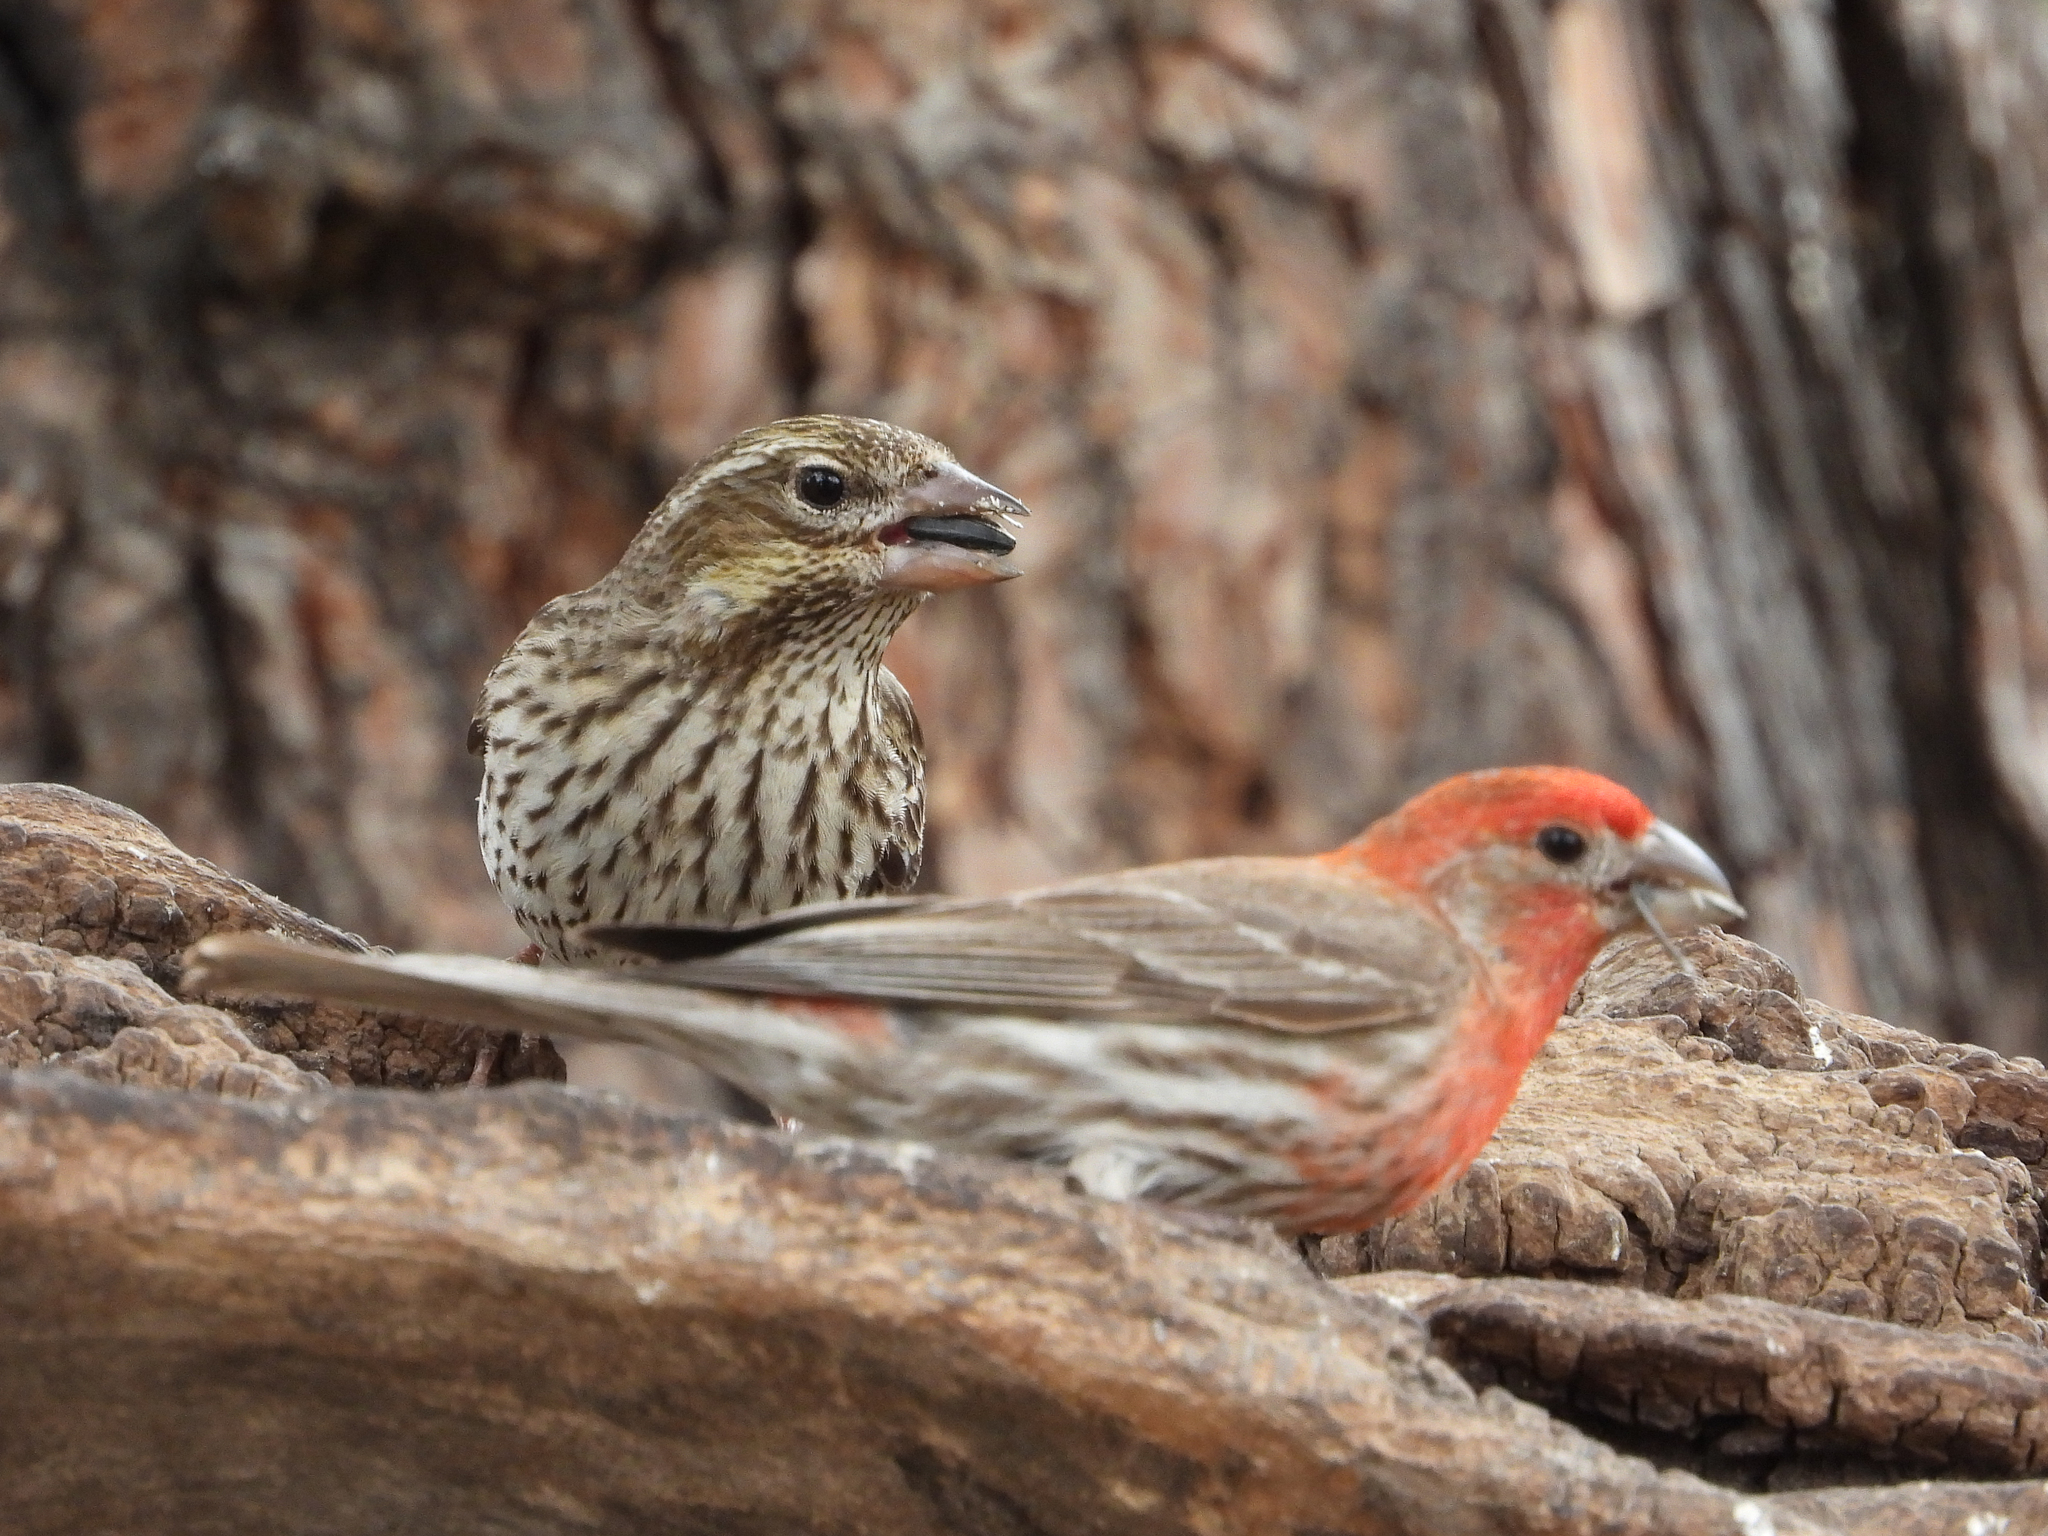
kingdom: Animalia
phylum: Chordata
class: Aves
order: Passeriformes
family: Fringillidae
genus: Haemorhous
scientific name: Haemorhous cassinii
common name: Cassin's finch
